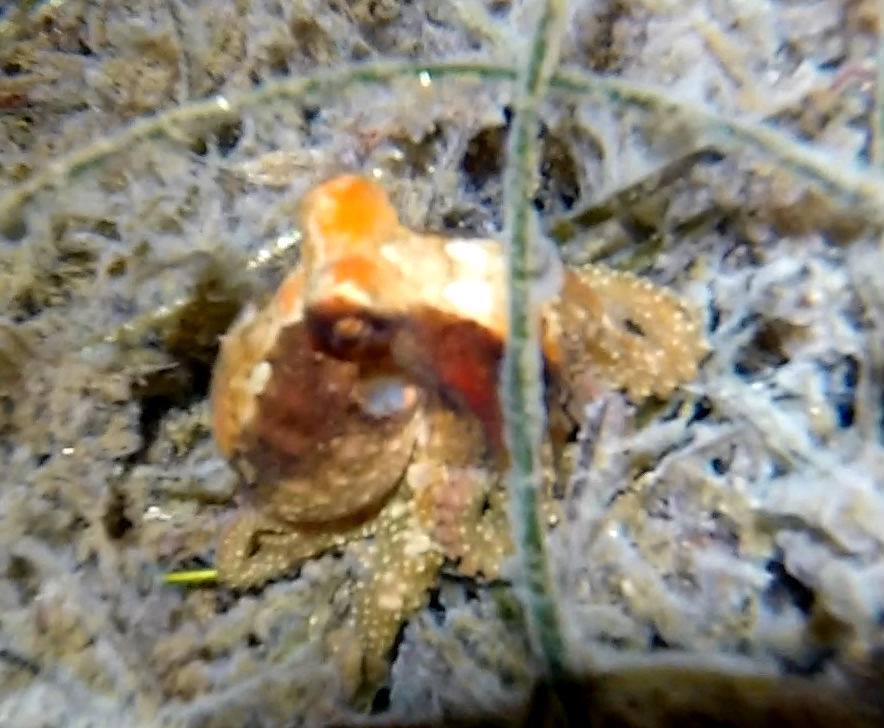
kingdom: Animalia
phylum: Mollusca
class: Cephalopoda
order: Octopoda
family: Octopodidae
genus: Octopus
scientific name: Octopus bimaculoides
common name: California two-spot octopus
